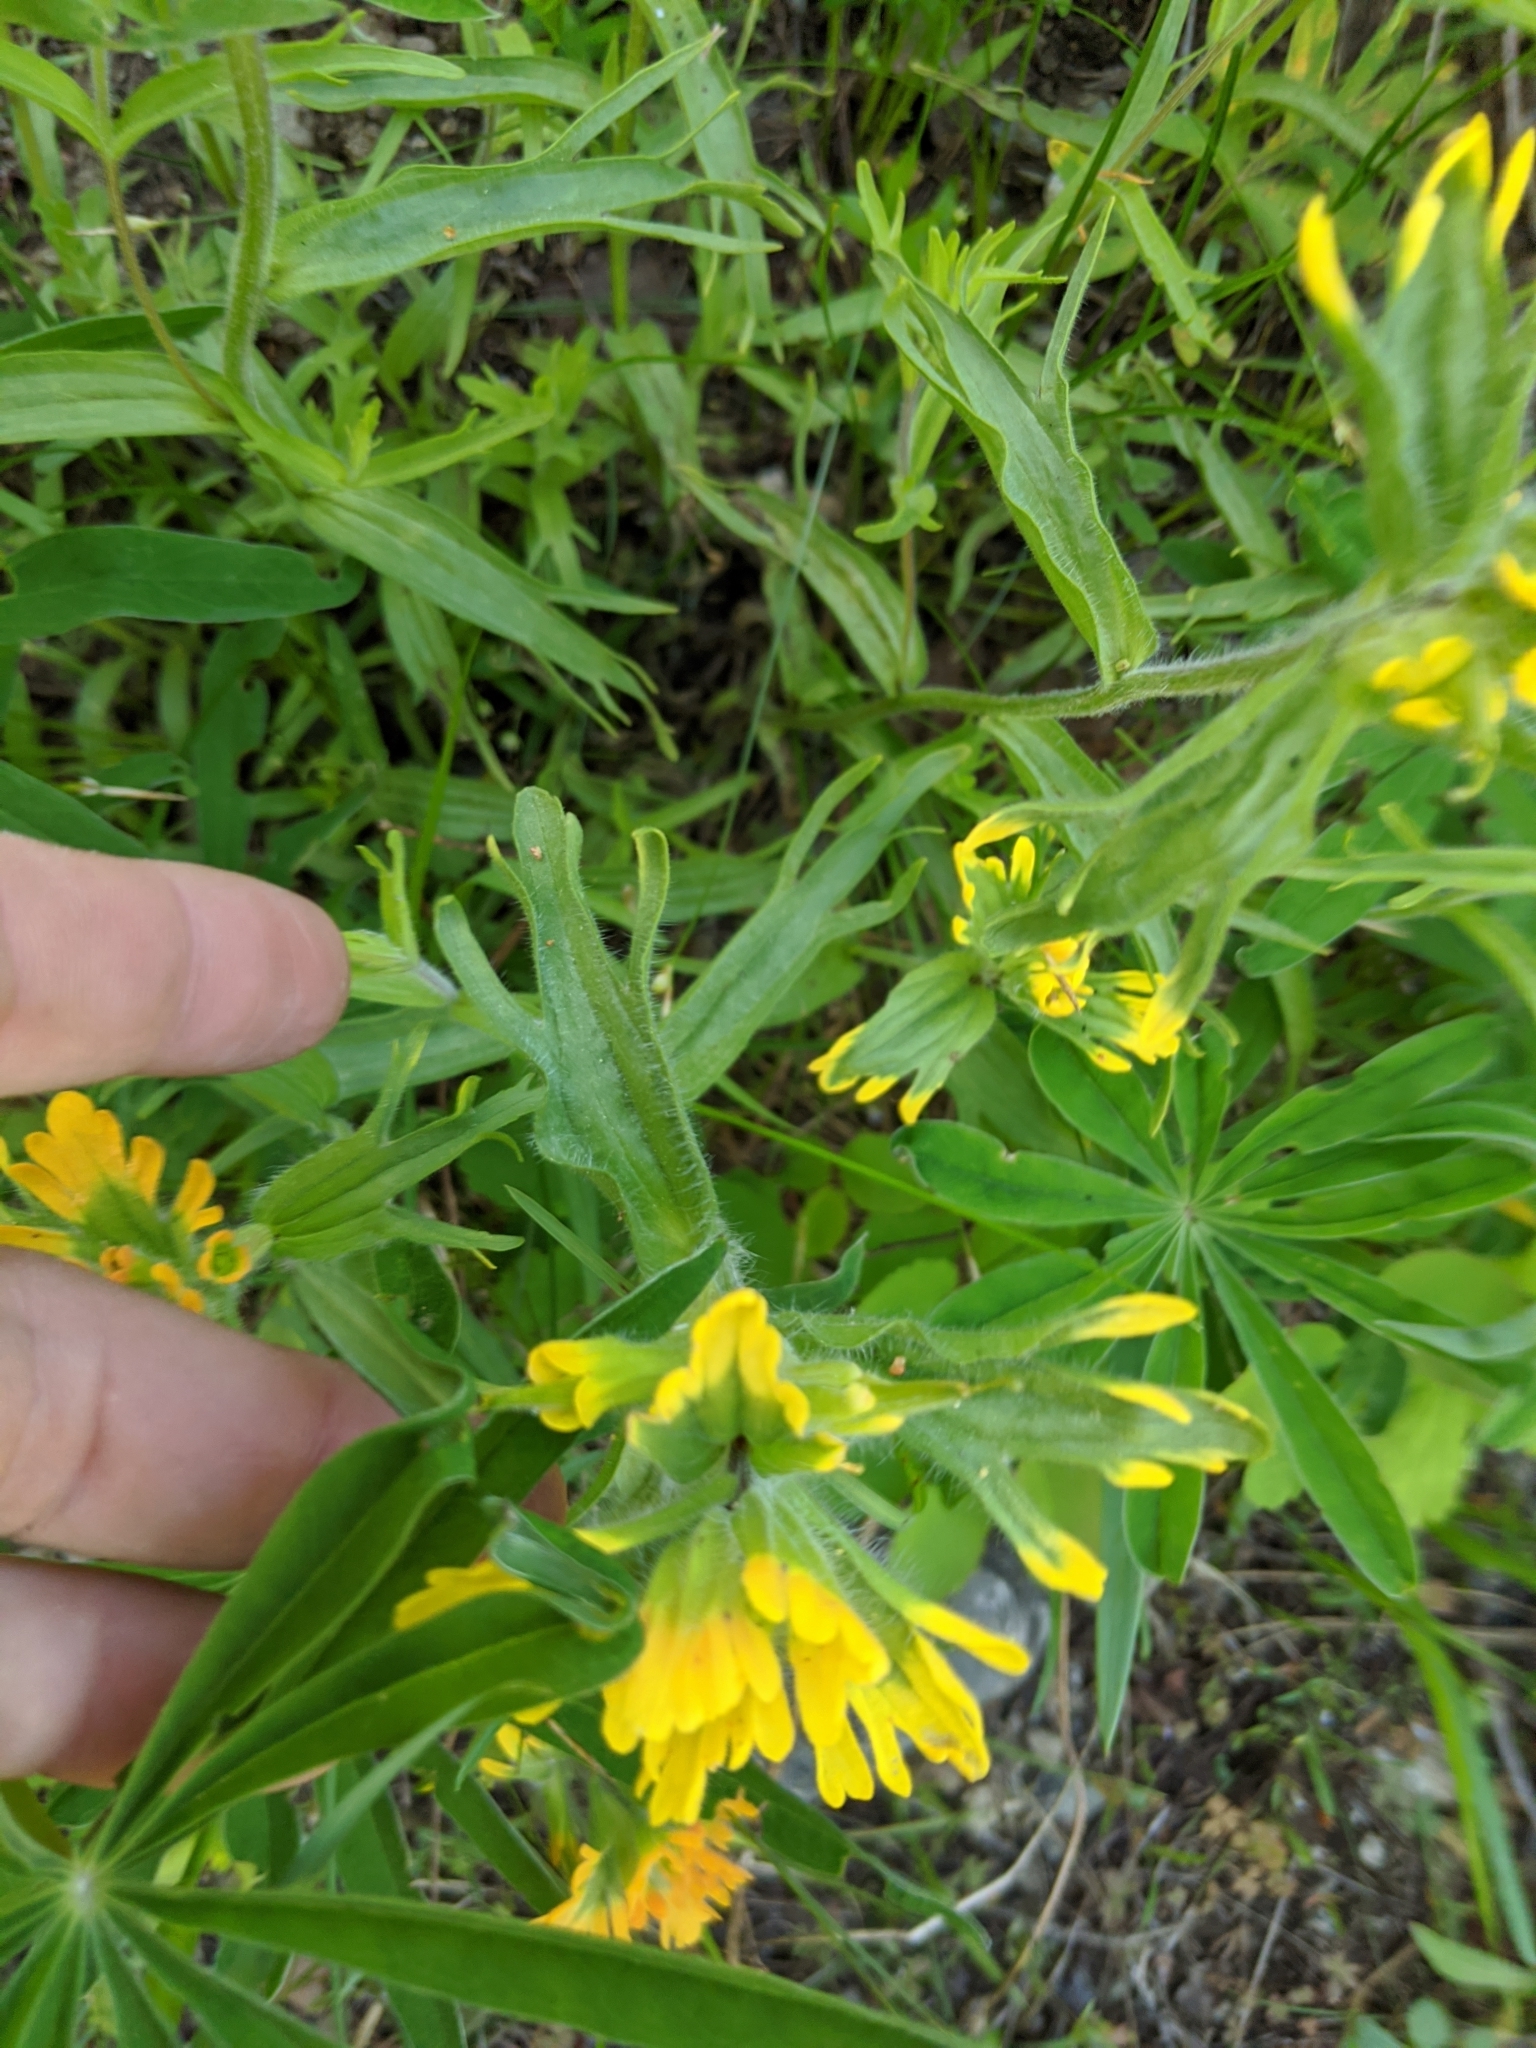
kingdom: Plantae
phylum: Tracheophyta
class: Magnoliopsida
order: Lamiales
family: Orobanchaceae
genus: Castilleja
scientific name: Castilleja hispida
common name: Bristly paintbrush
